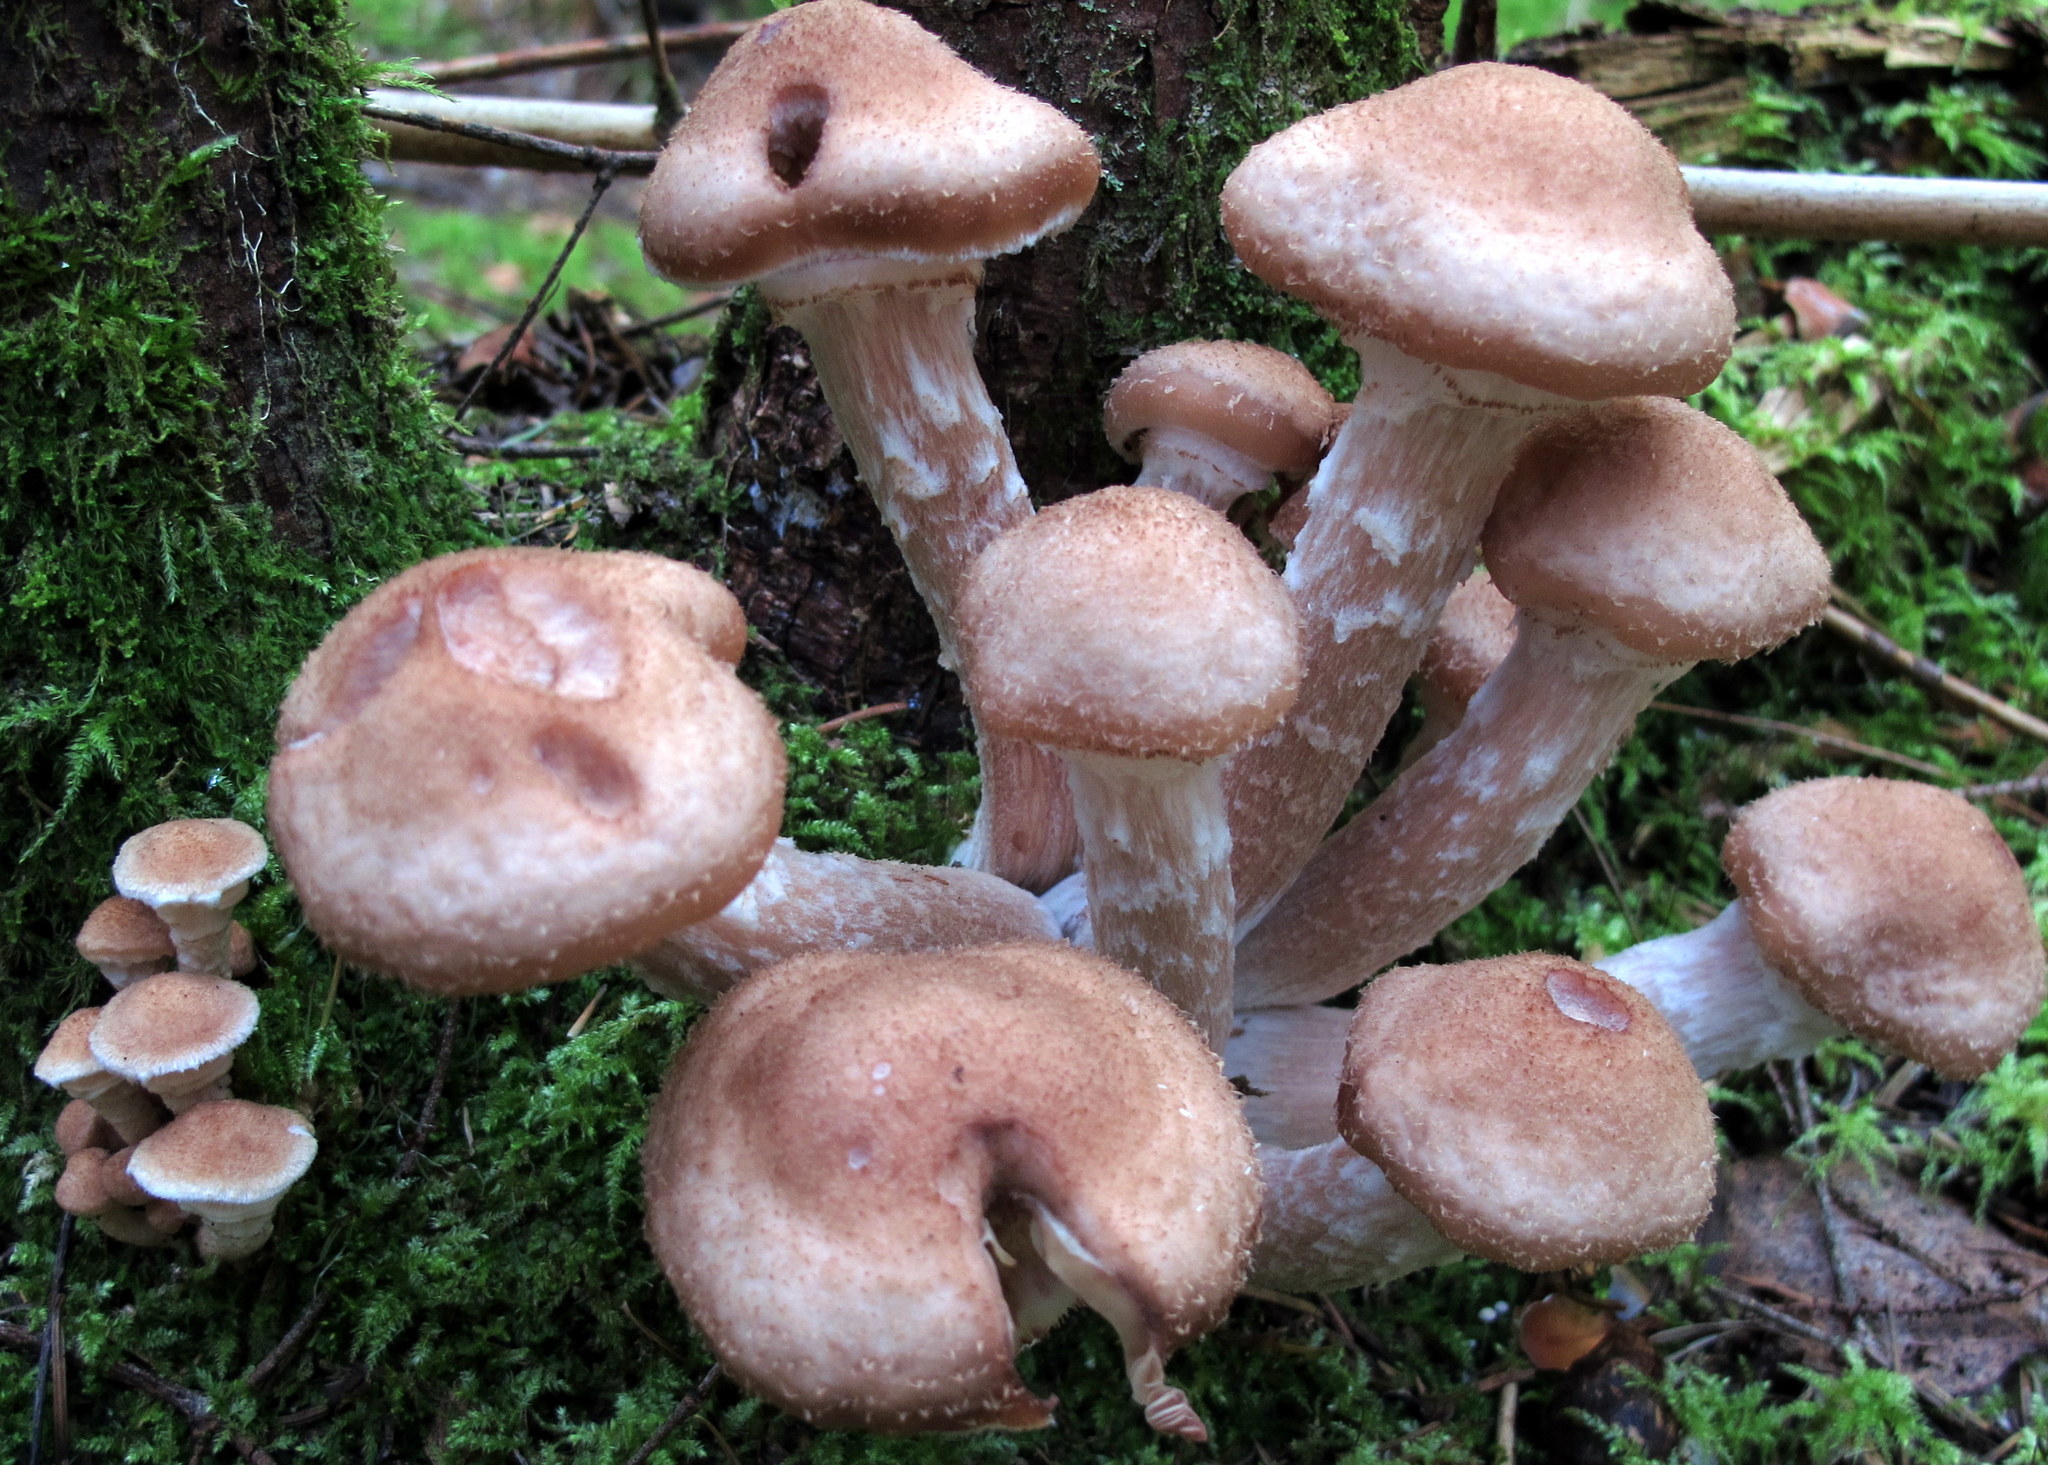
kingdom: Fungi
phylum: Basidiomycota
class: Agaricomycetes
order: Agaricales
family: Physalacriaceae
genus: Armillaria
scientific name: Armillaria ostoyae
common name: Dark honey fungus
